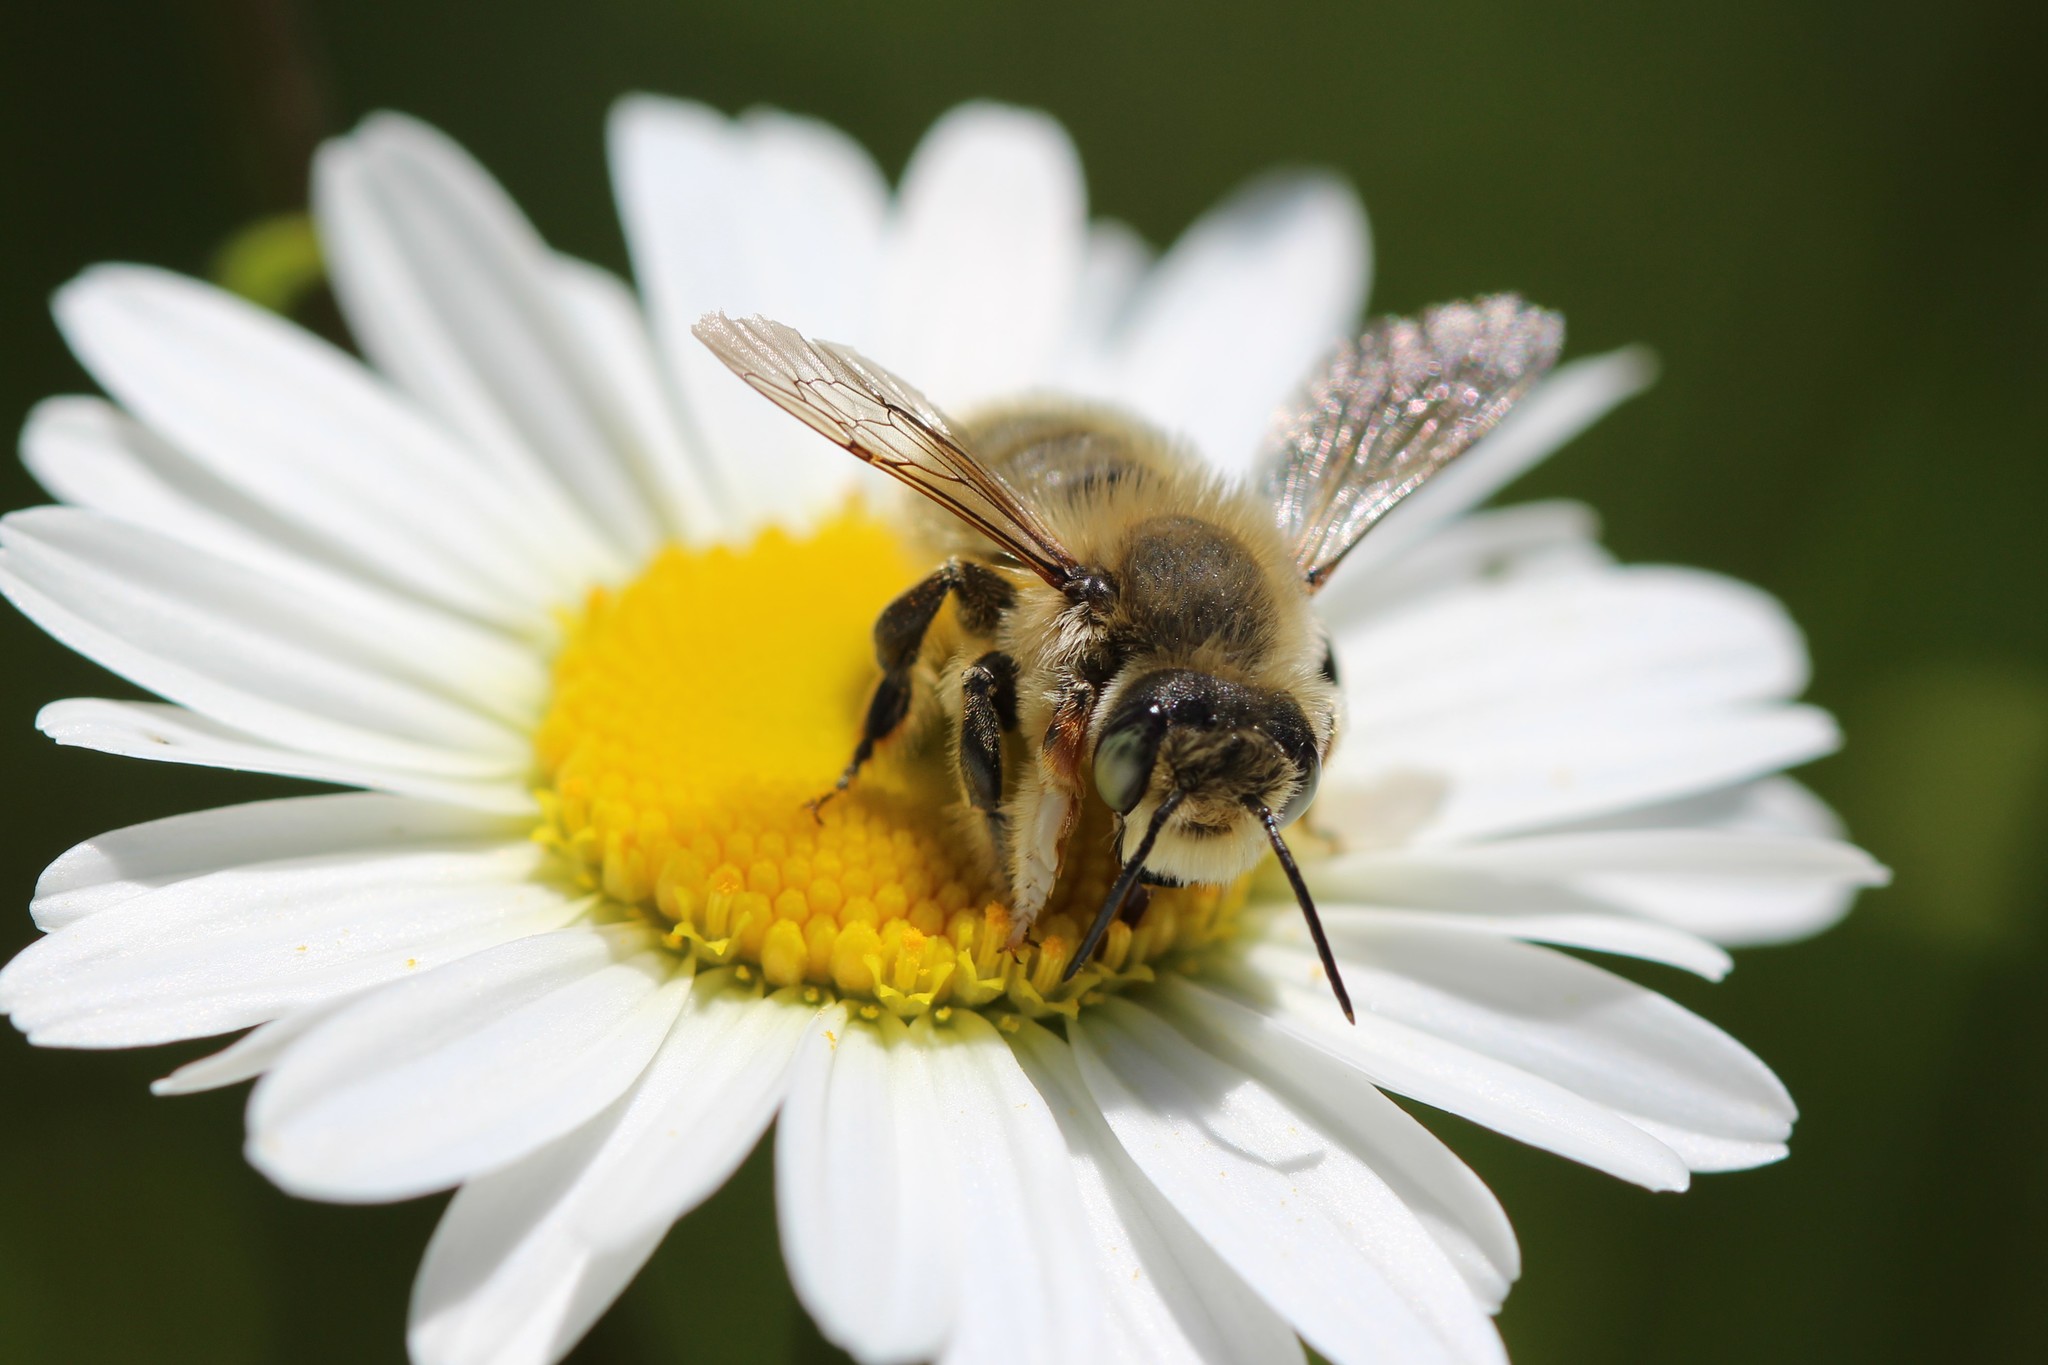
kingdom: Animalia
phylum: Arthropoda
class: Insecta
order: Hymenoptera
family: Megachilidae
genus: Megachile
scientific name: Megachile perihirta
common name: Western leafcutter
